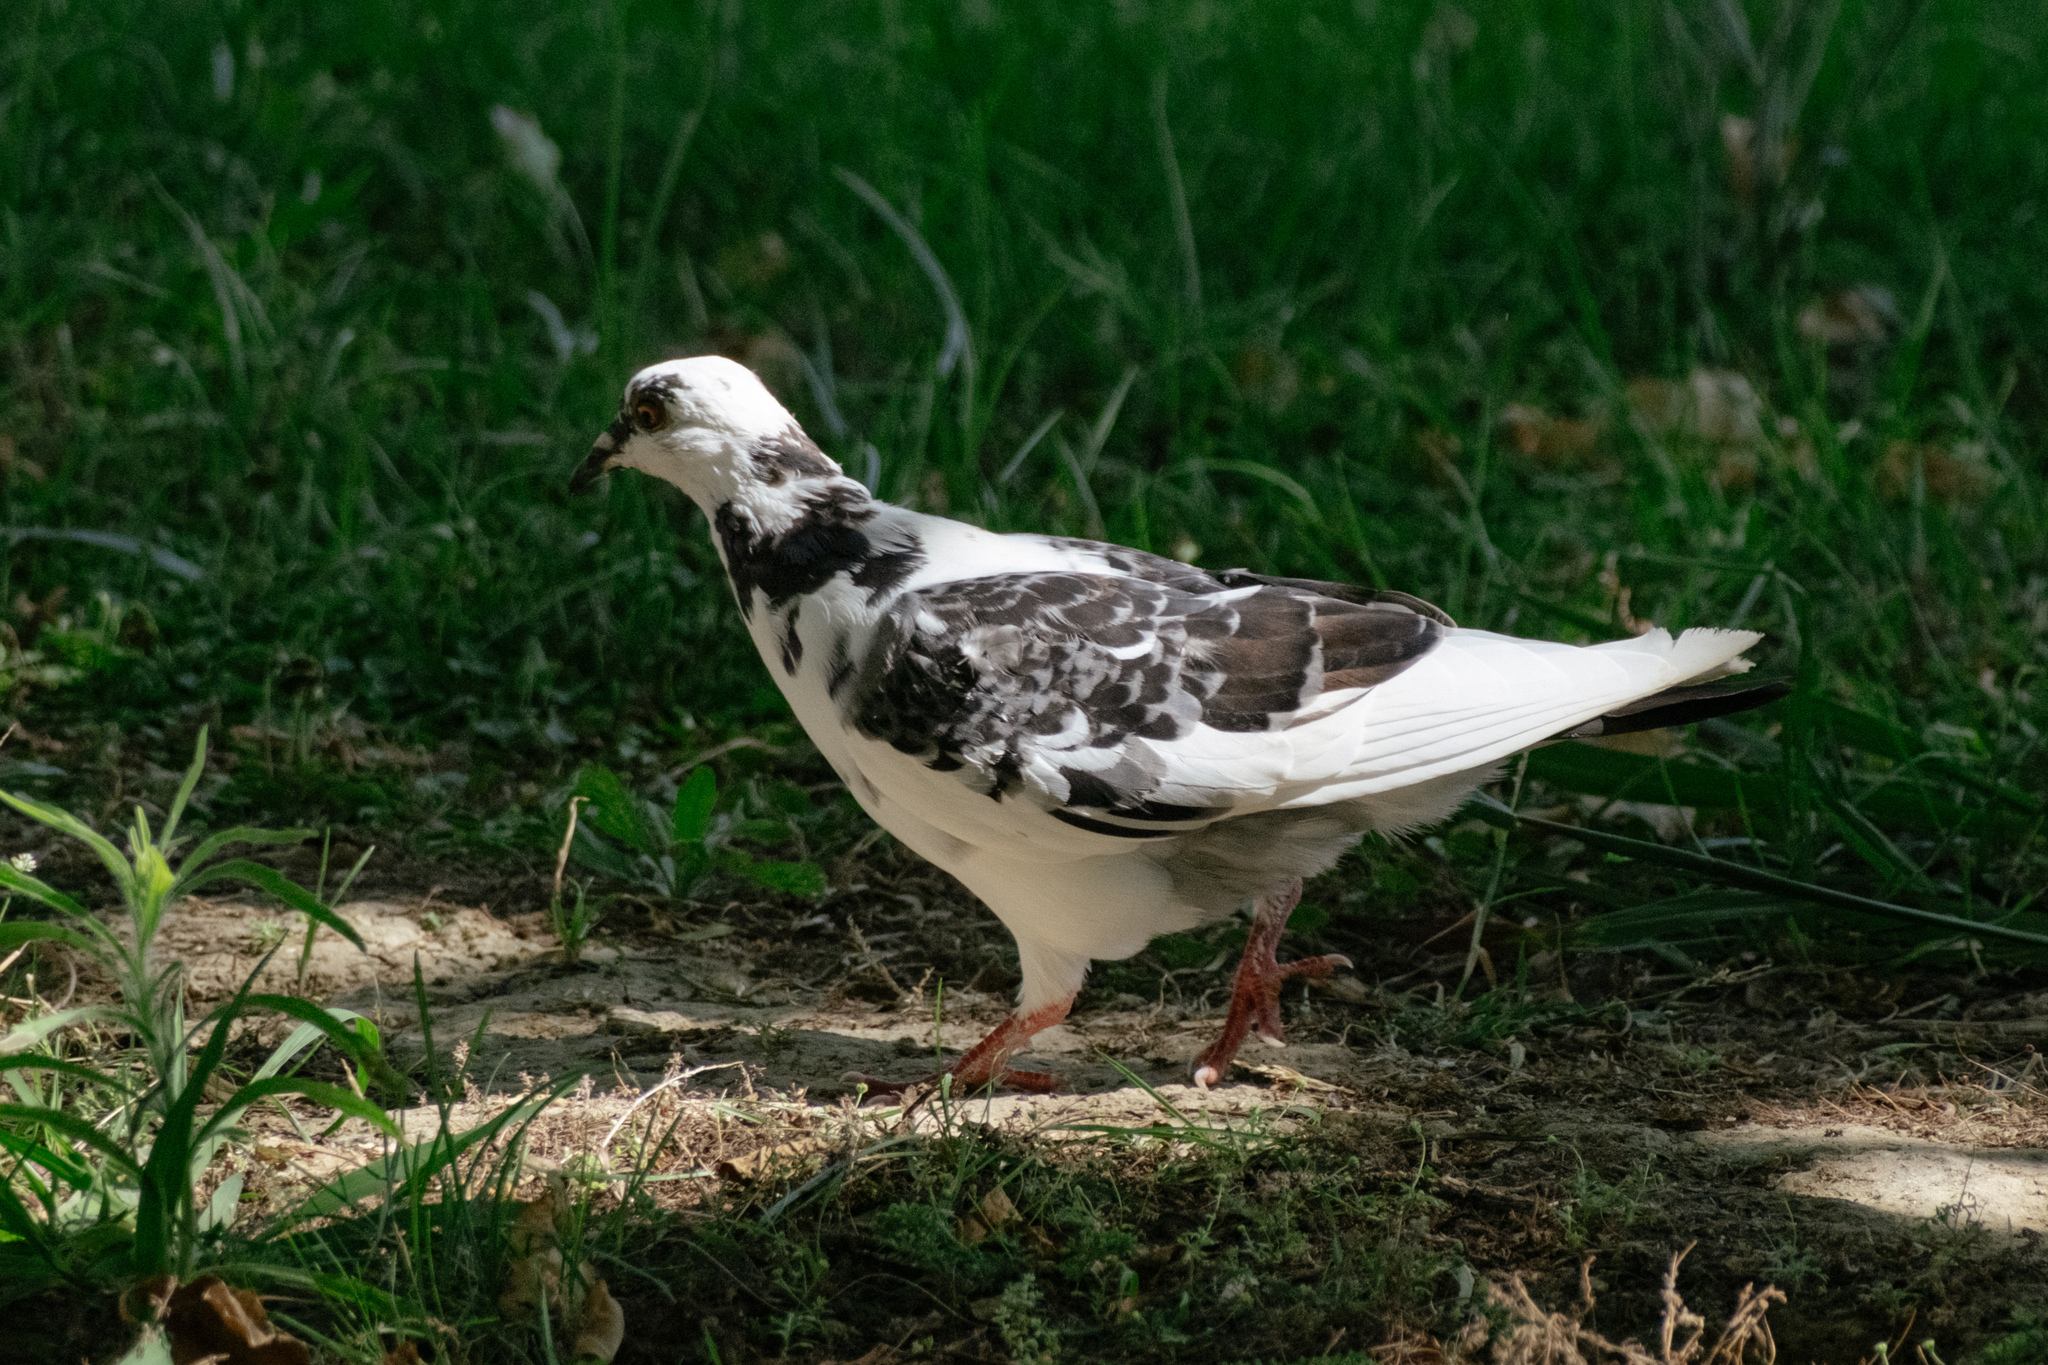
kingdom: Animalia
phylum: Chordata
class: Aves
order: Columbiformes
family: Columbidae
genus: Columba
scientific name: Columba livia
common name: Rock pigeon
